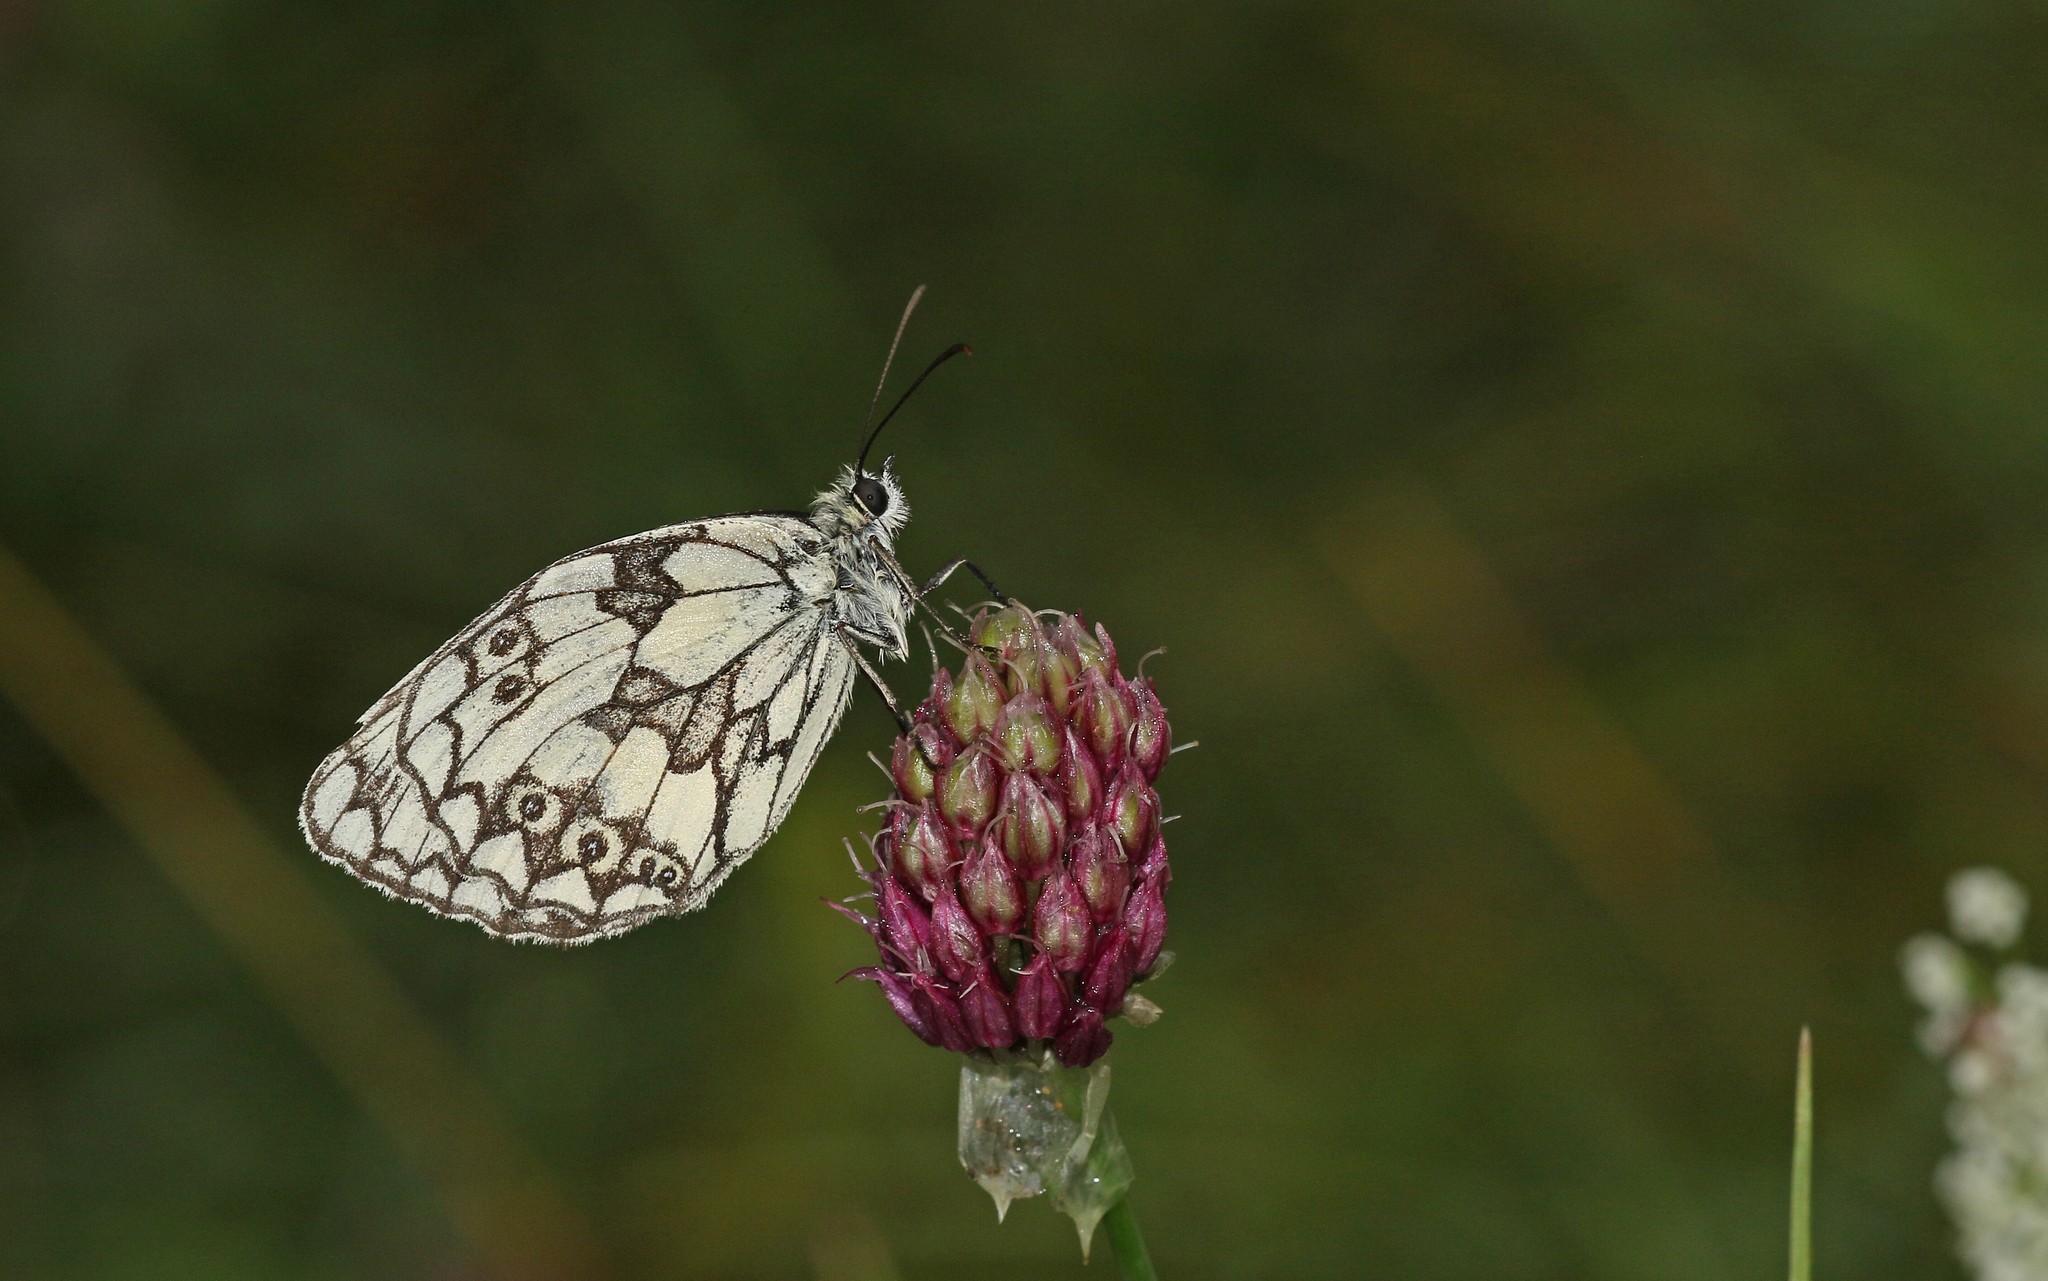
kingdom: Animalia
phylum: Arthropoda
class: Insecta
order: Lepidoptera
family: Nymphalidae
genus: Melanargia
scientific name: Melanargia galathea
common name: Marbled white
